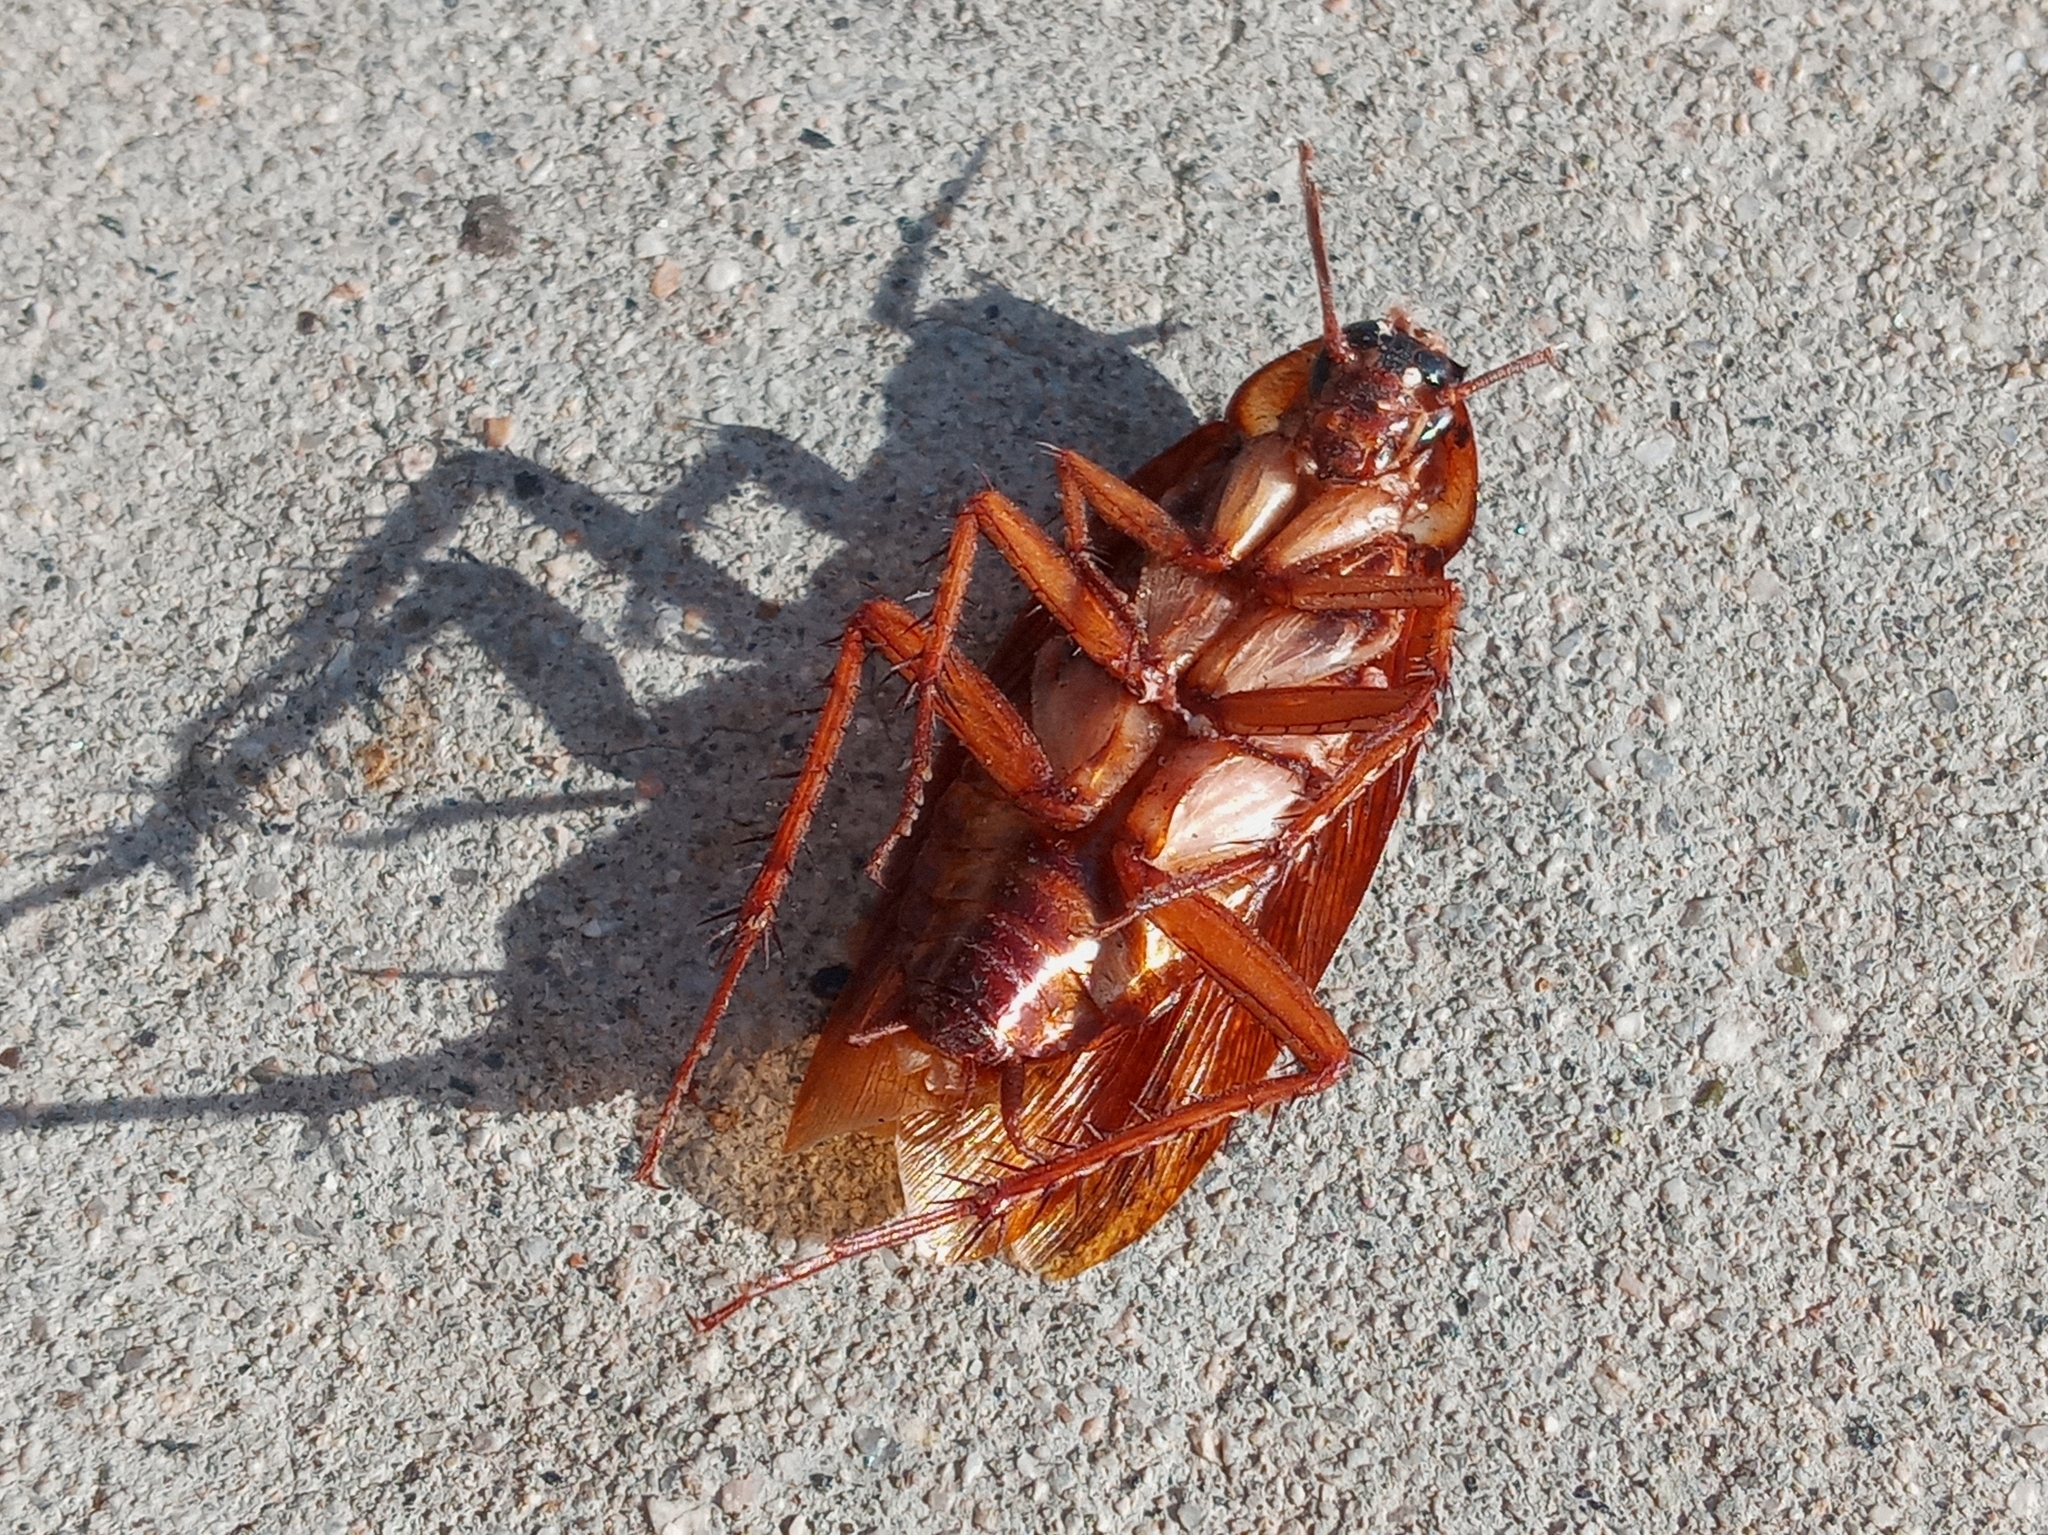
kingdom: Animalia
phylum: Arthropoda
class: Insecta
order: Blattodea
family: Blattidae
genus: Periplaneta
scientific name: Periplaneta americana
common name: American cockroach
